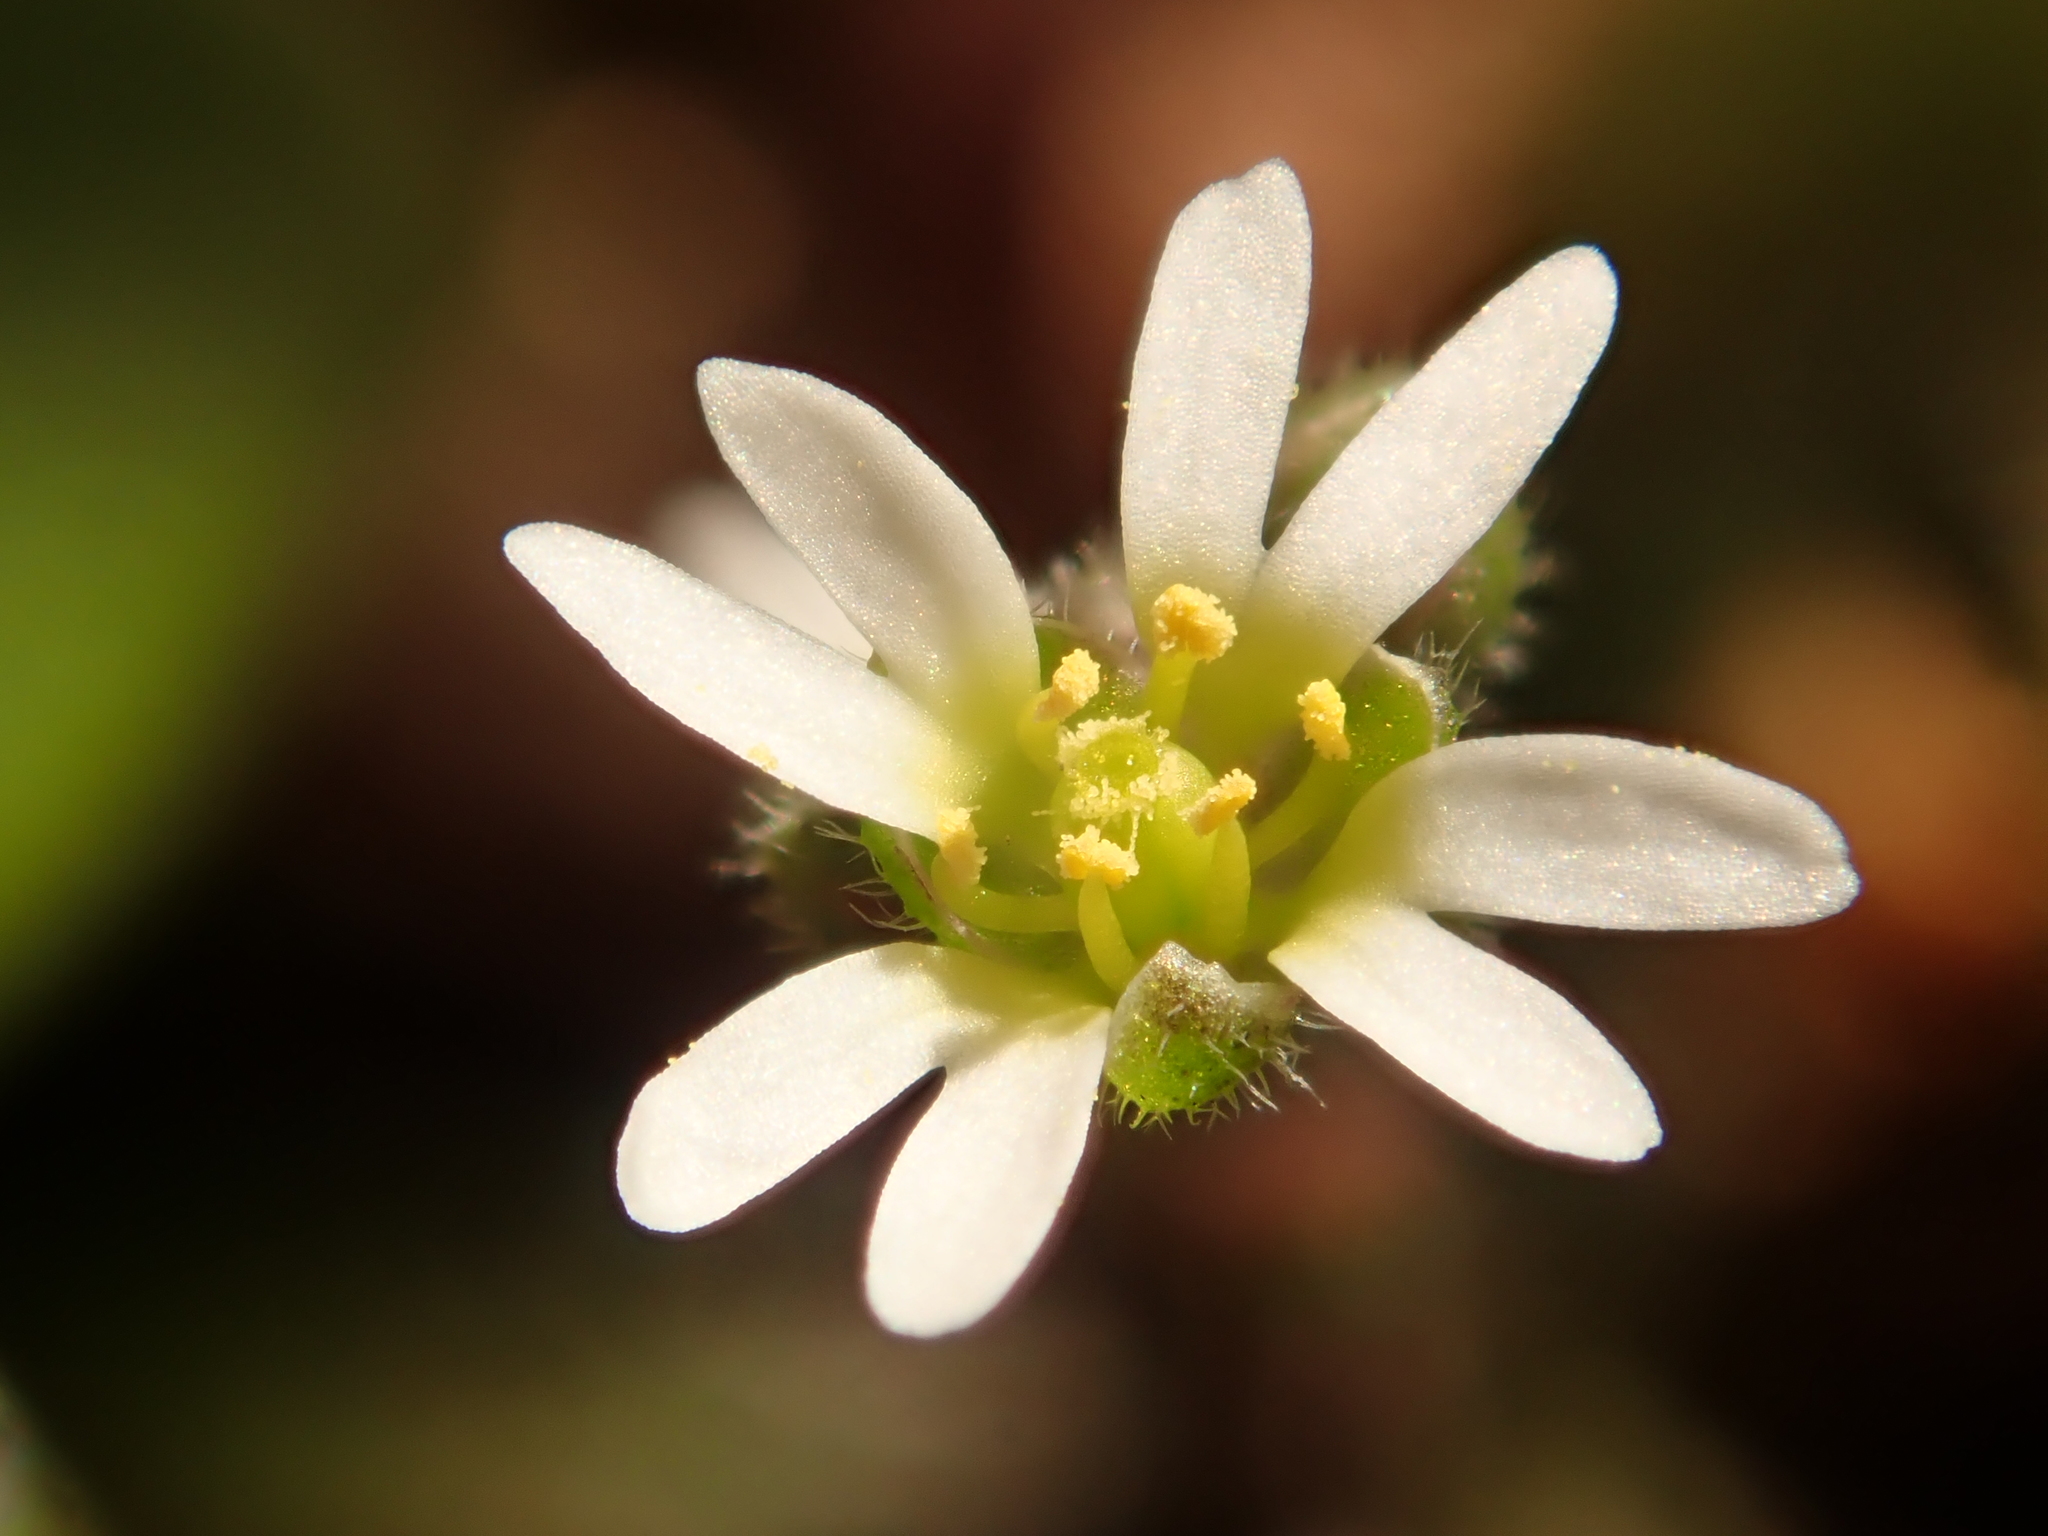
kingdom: Plantae
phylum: Tracheophyta
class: Magnoliopsida
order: Brassicales
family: Brassicaceae
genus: Draba
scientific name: Draba verna
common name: Spring draba
